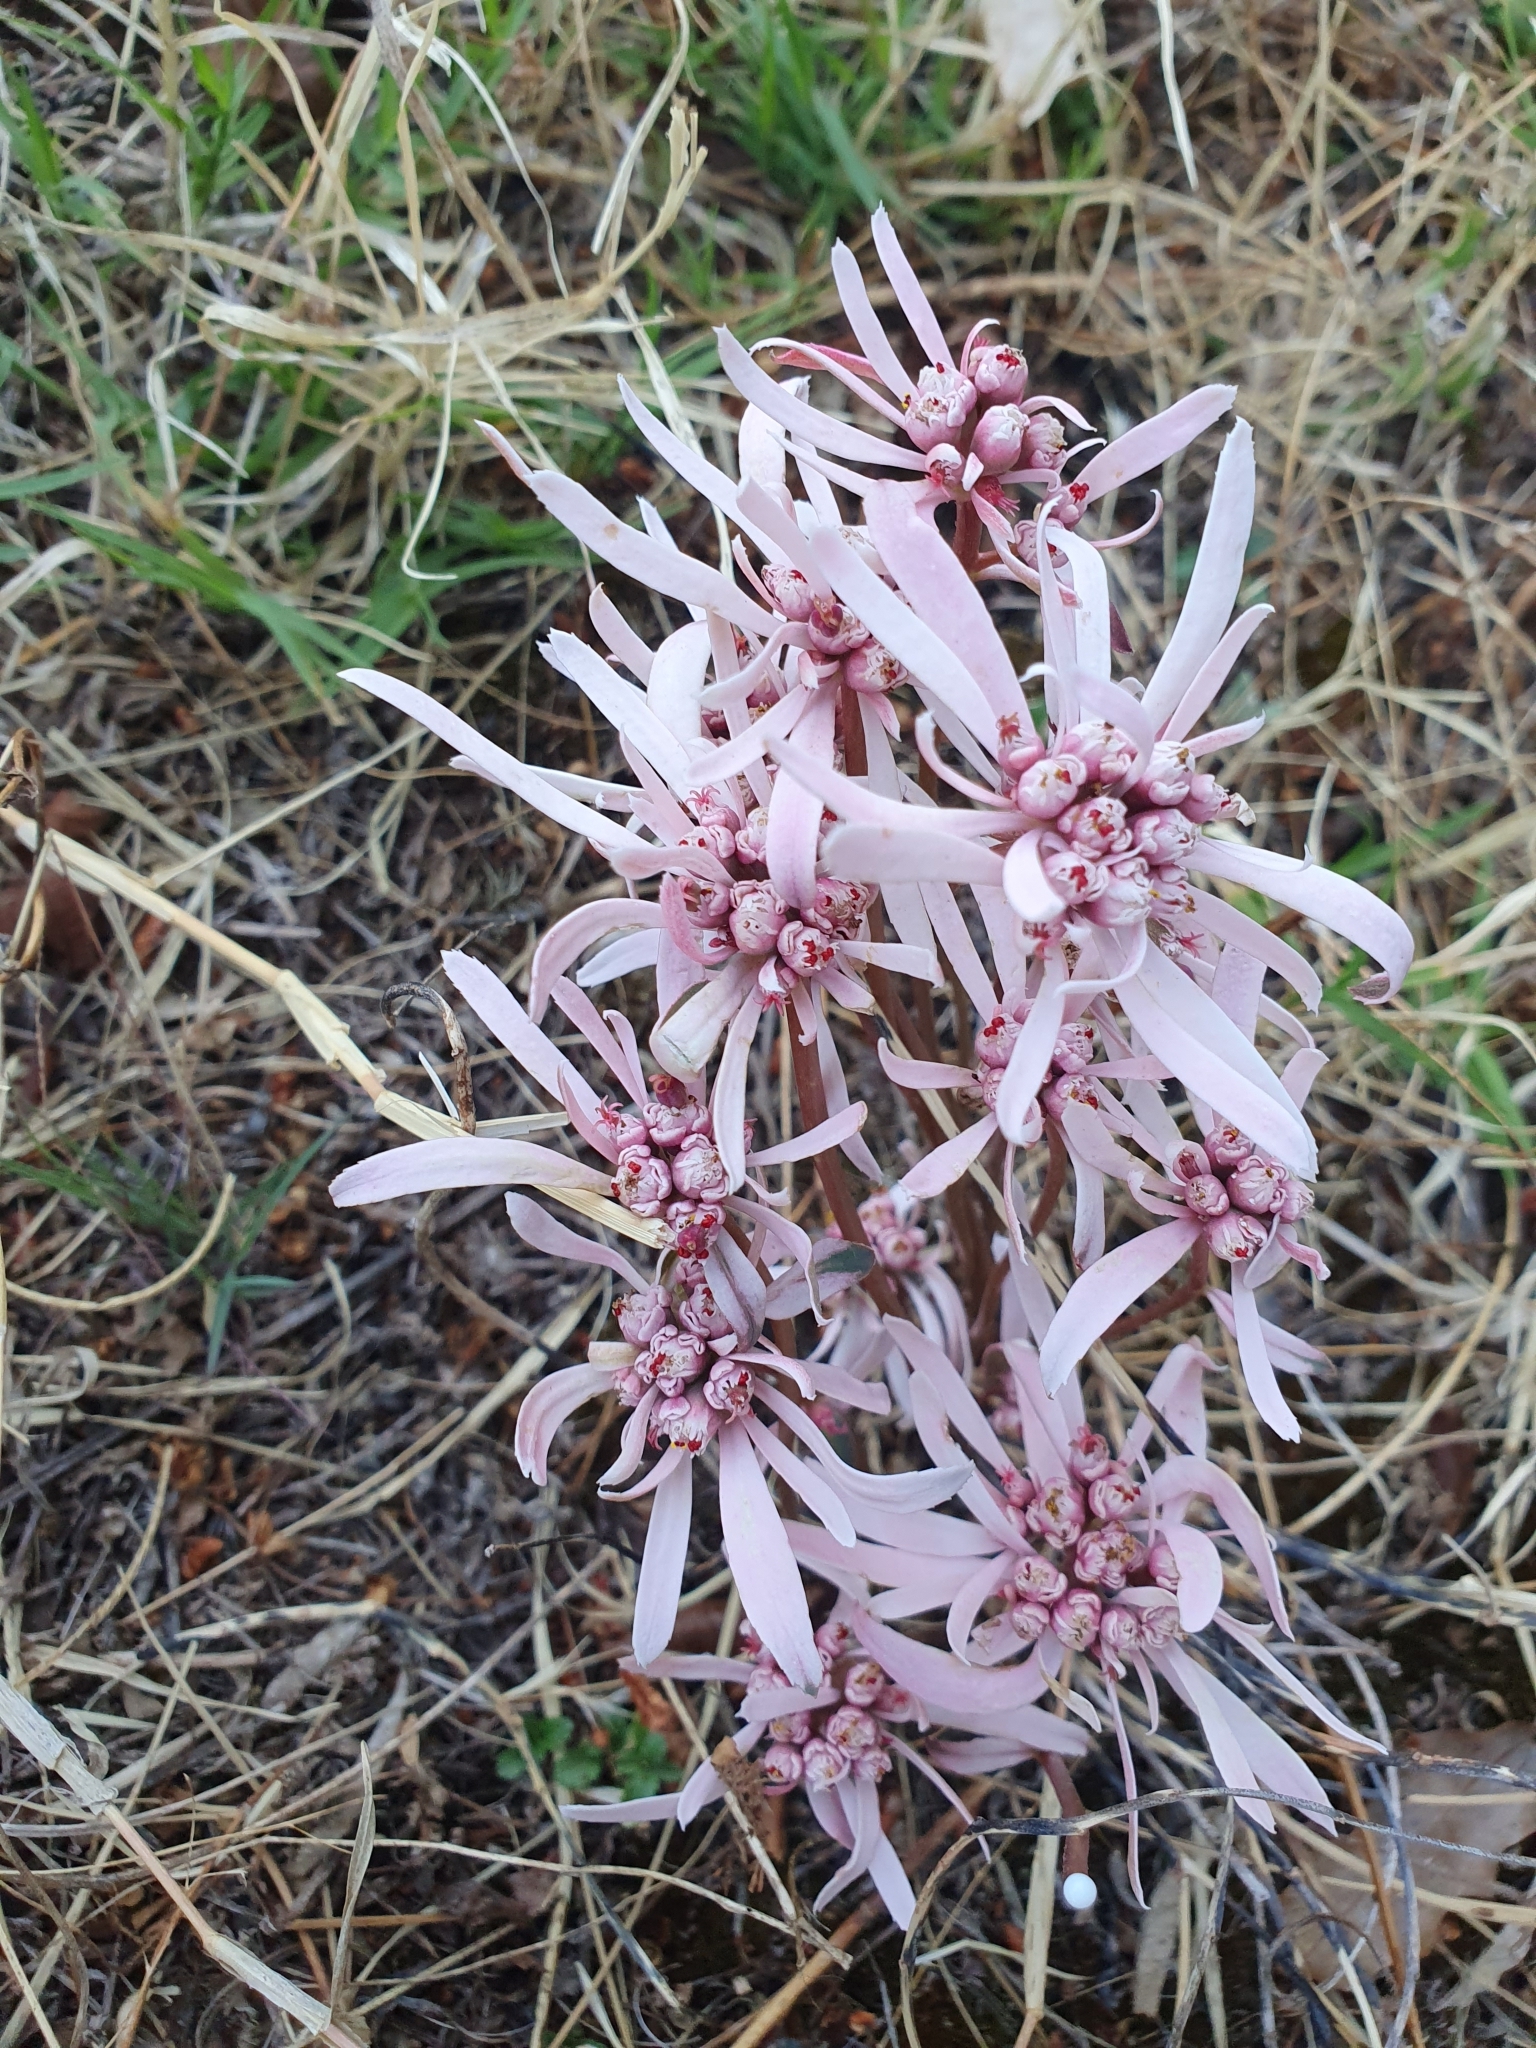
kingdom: Plantae
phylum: Tracheophyta
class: Magnoliopsida
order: Malpighiales
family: Euphorbiaceae
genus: Euphorbia
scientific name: Euphorbia radians
